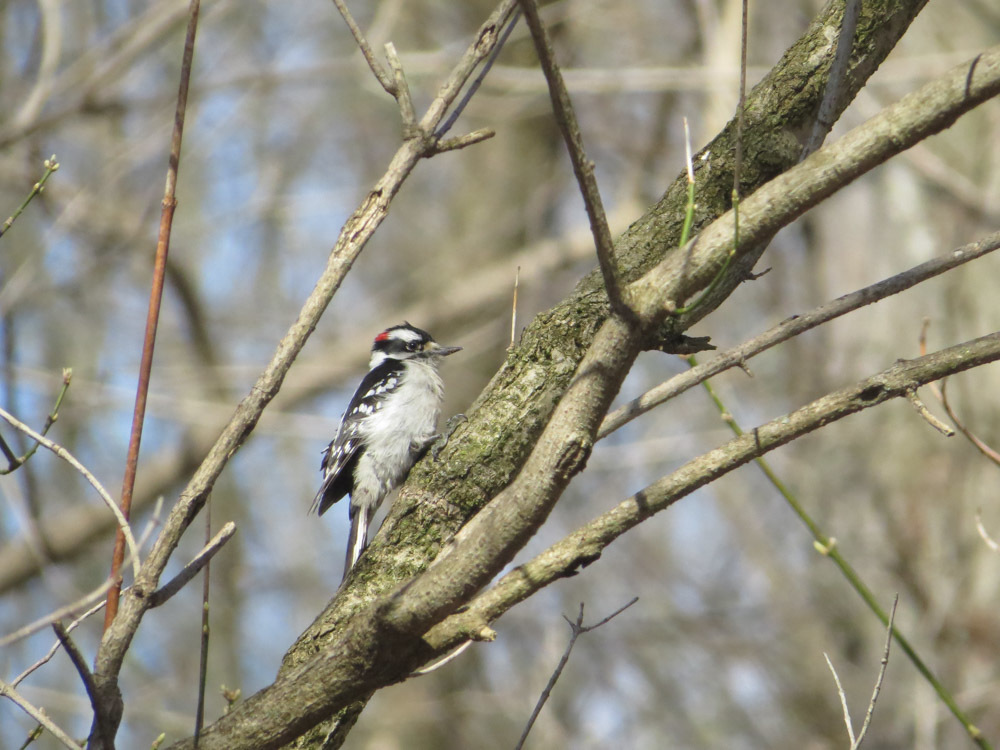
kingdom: Animalia
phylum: Chordata
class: Aves
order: Piciformes
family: Picidae
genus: Dryobates
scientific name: Dryobates pubescens
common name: Downy woodpecker
